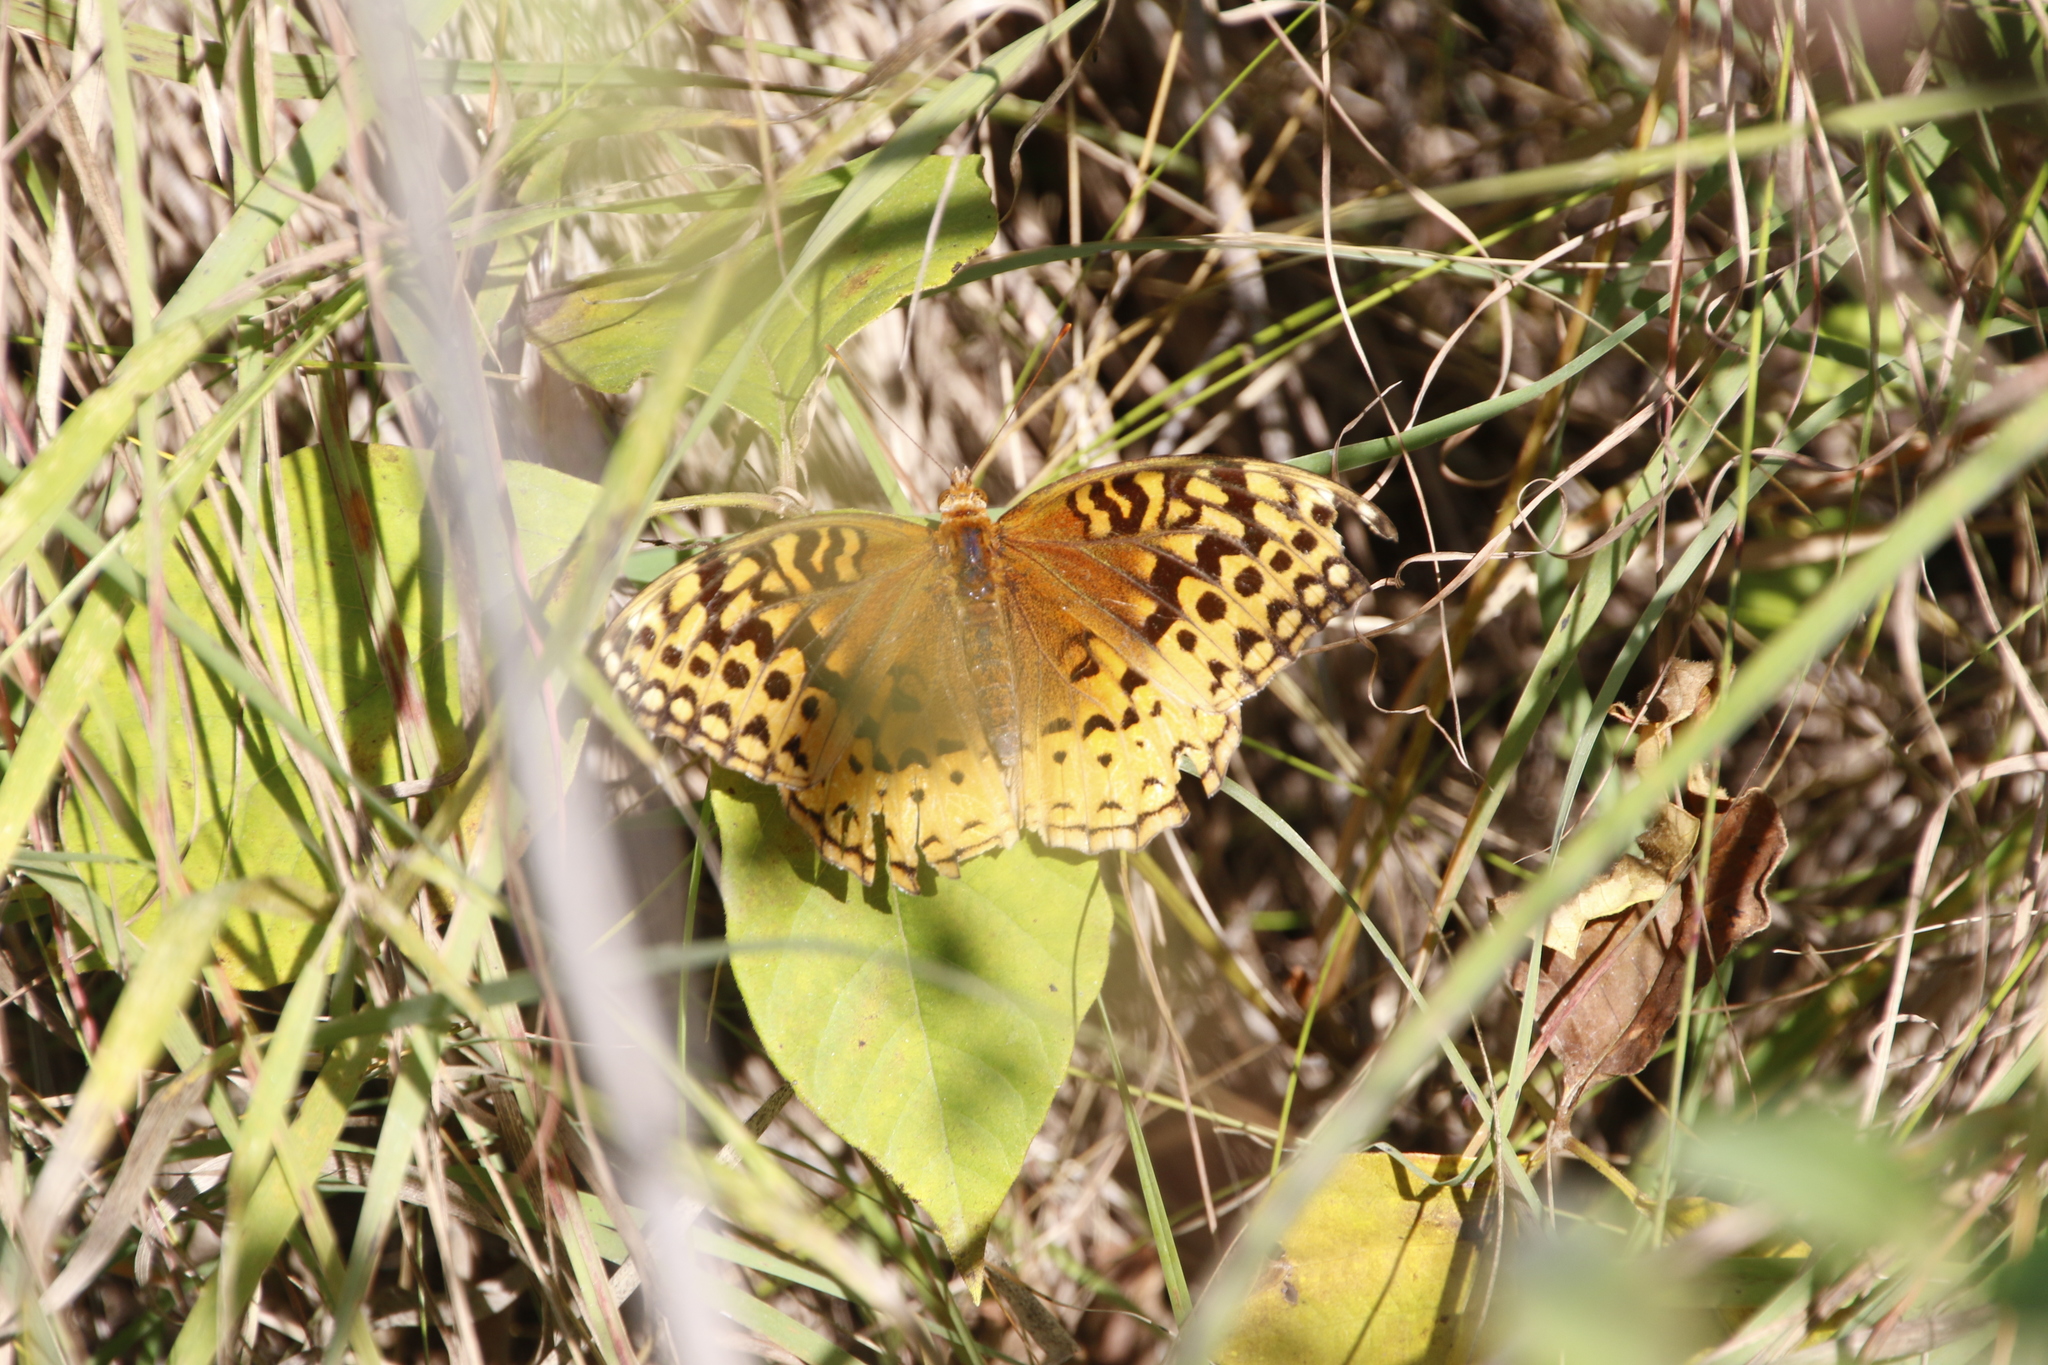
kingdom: Animalia
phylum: Arthropoda
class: Insecta
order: Lepidoptera
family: Nymphalidae
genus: Speyeria
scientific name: Speyeria cybele
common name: Great spangled fritillary
